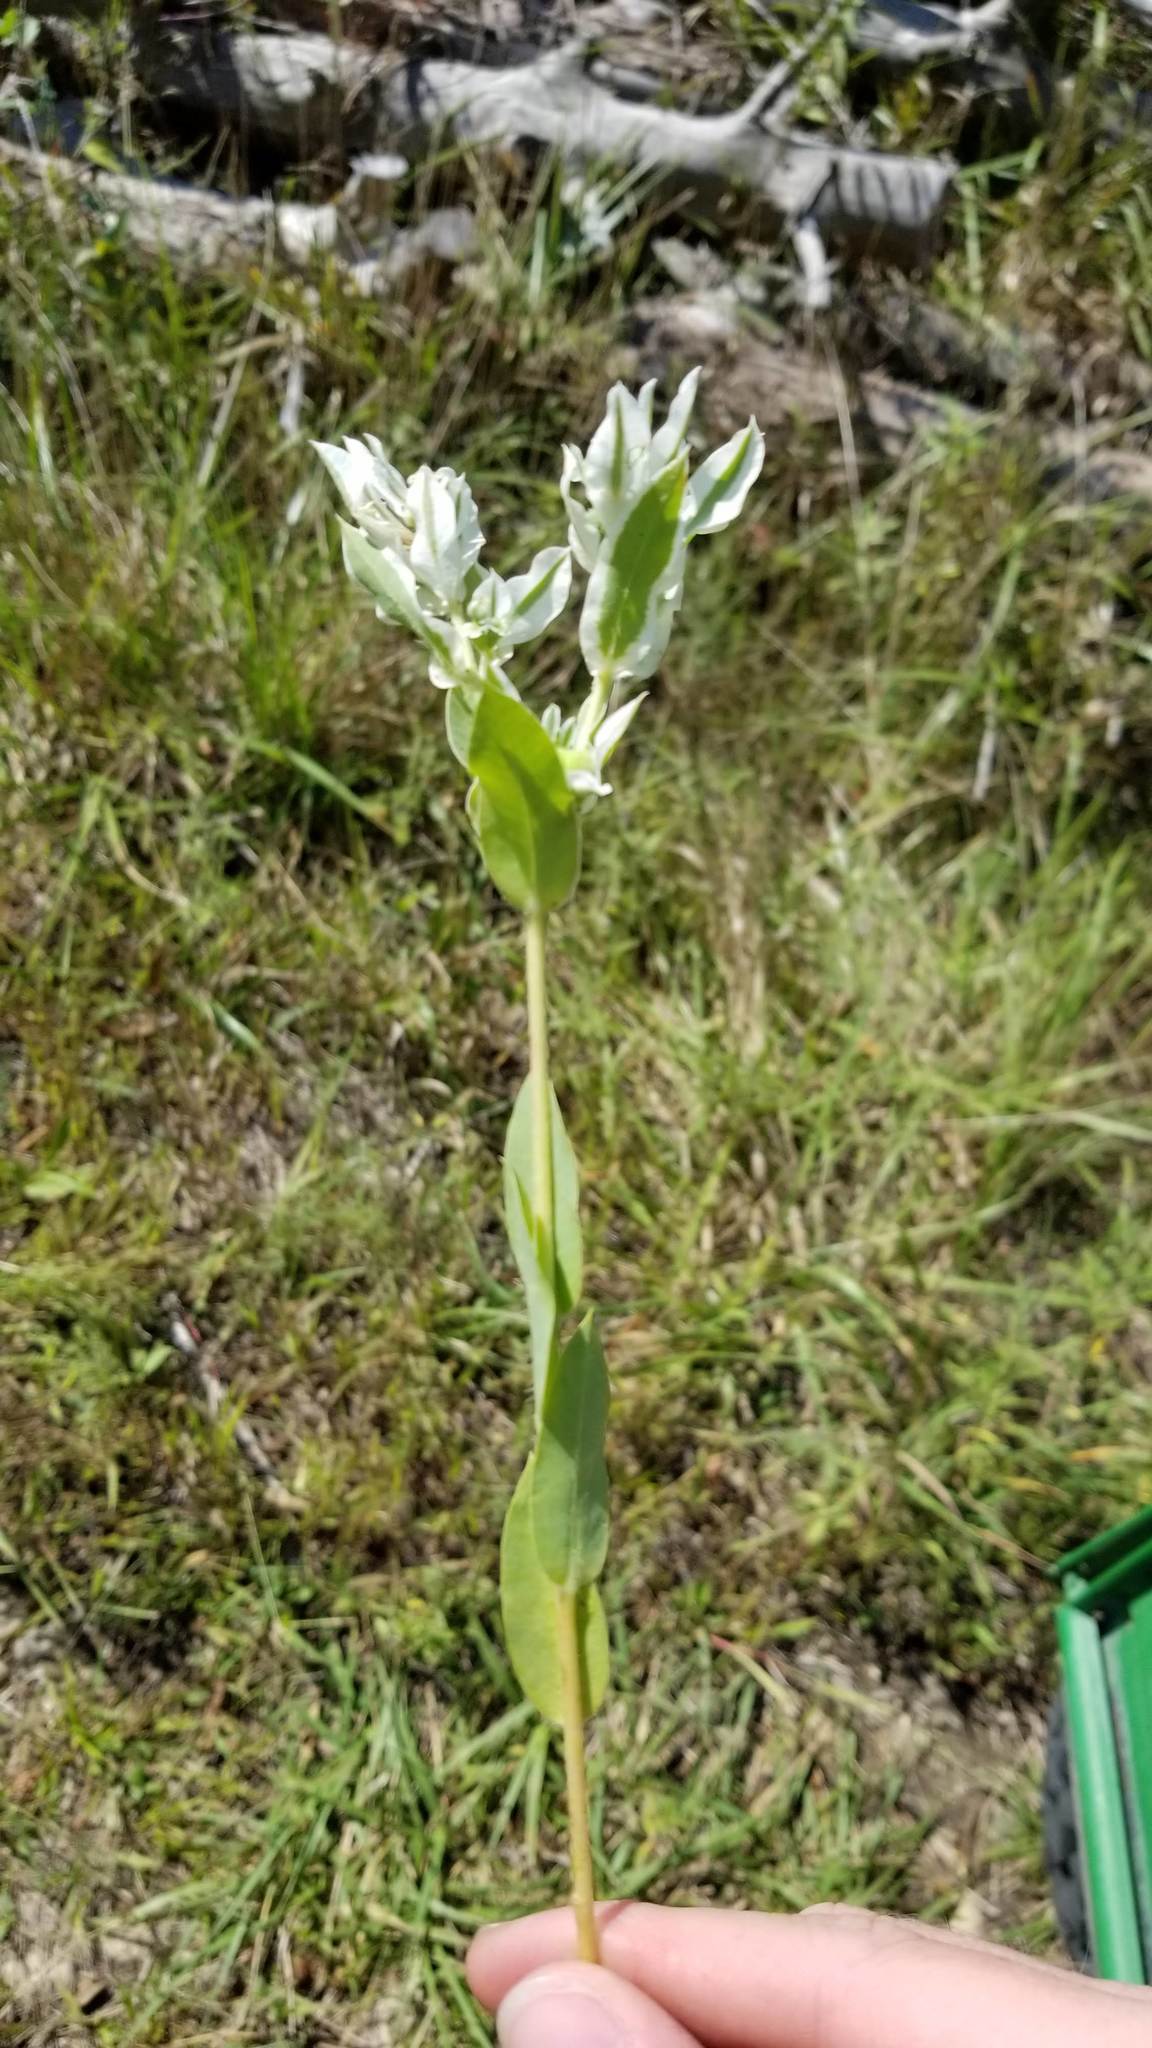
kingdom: Plantae
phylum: Tracheophyta
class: Magnoliopsida
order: Malpighiales
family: Euphorbiaceae
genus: Euphorbia
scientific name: Euphorbia marginata
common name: Ghostweed
